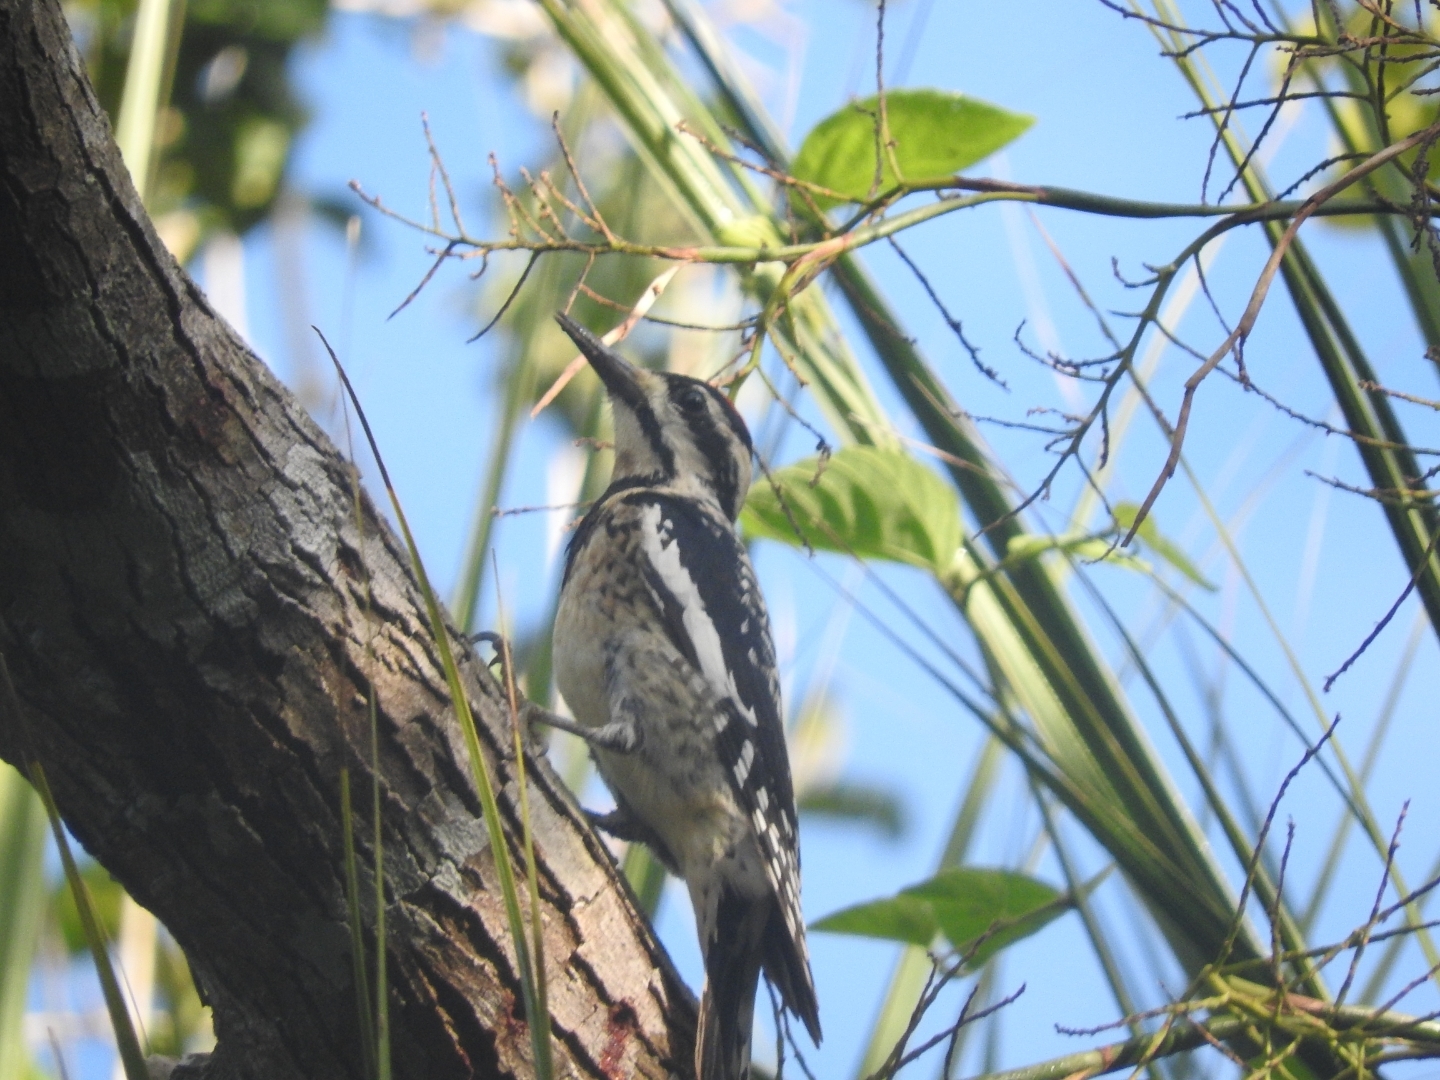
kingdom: Animalia
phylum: Chordata
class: Aves
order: Piciformes
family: Picidae
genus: Sphyrapicus
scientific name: Sphyrapicus varius
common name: Yellow-bellied sapsucker
